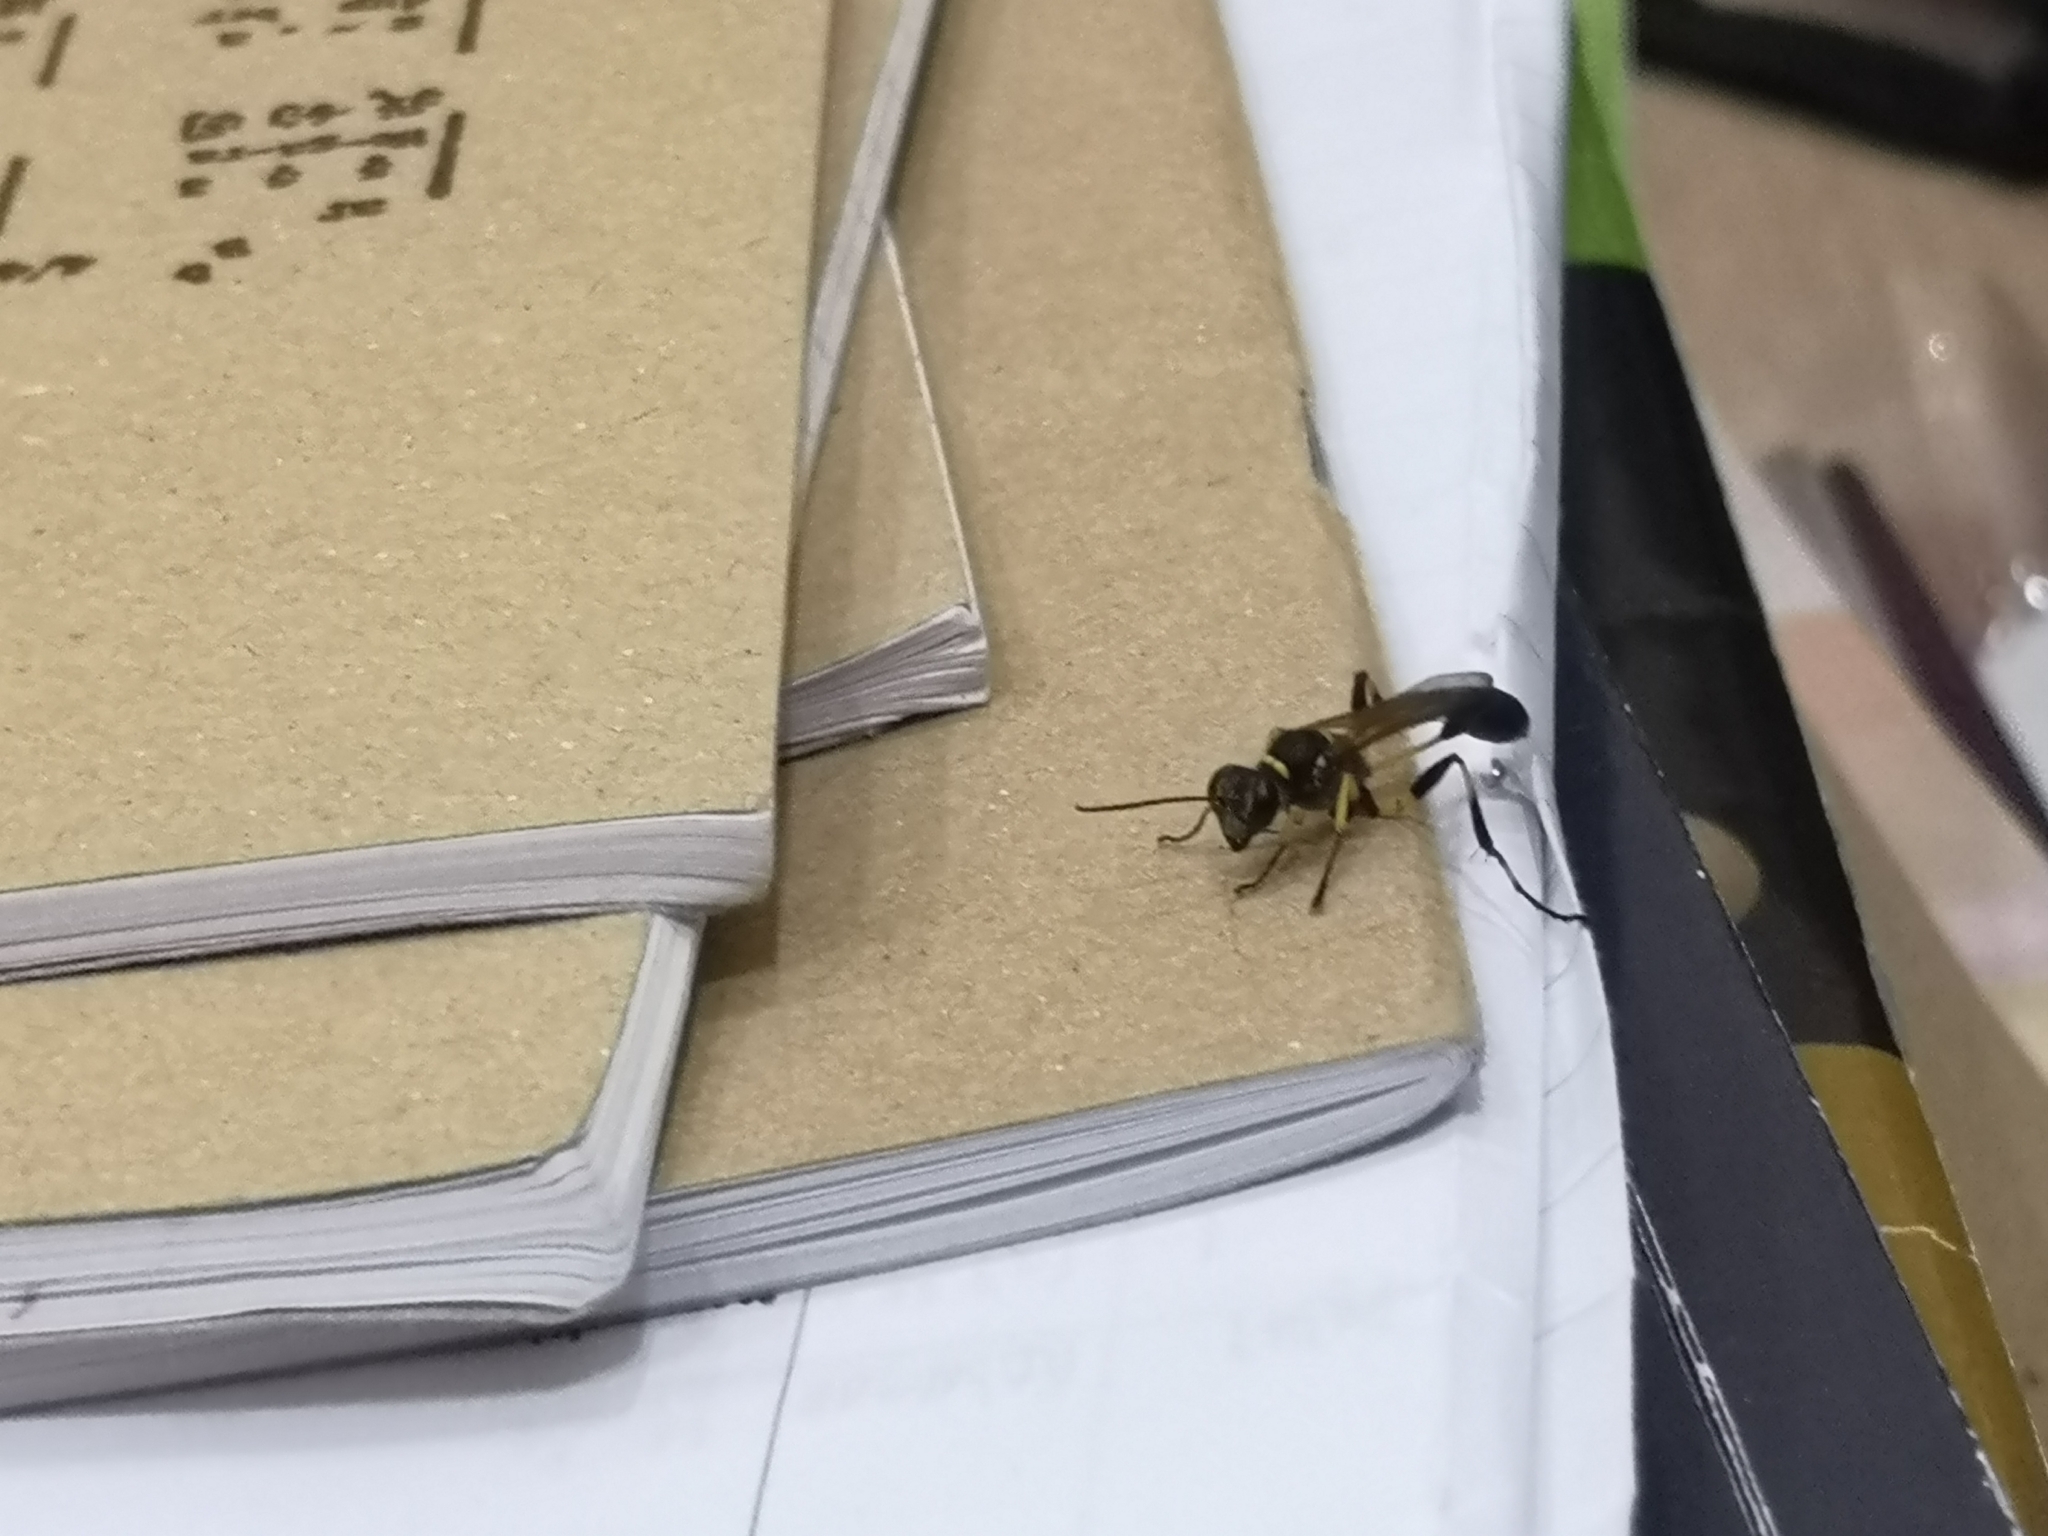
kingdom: Animalia
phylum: Arthropoda
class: Insecta
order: Hymenoptera
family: Sphecidae
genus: Sceliphron
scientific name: Sceliphron madraspatanum
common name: Mud dauber
